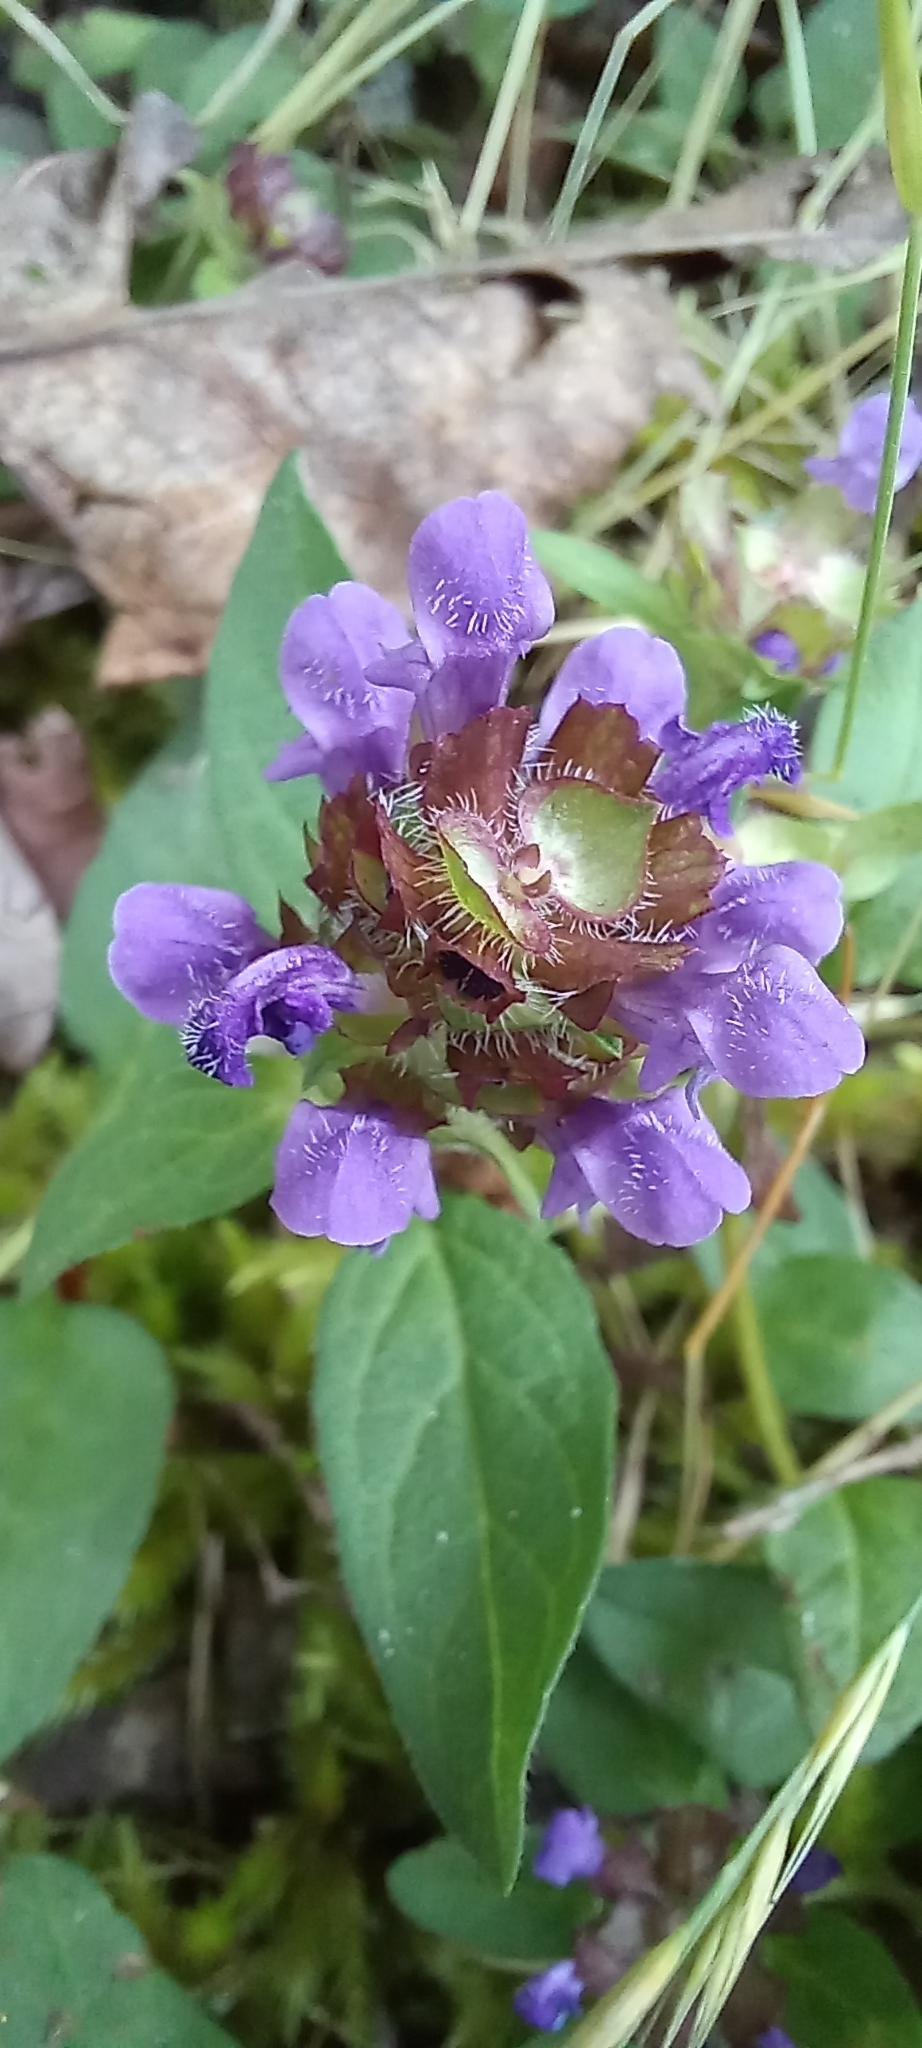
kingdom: Plantae
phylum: Tracheophyta
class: Magnoliopsida
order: Lamiales
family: Lamiaceae
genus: Prunella
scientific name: Prunella vulgaris
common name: Heal-all
